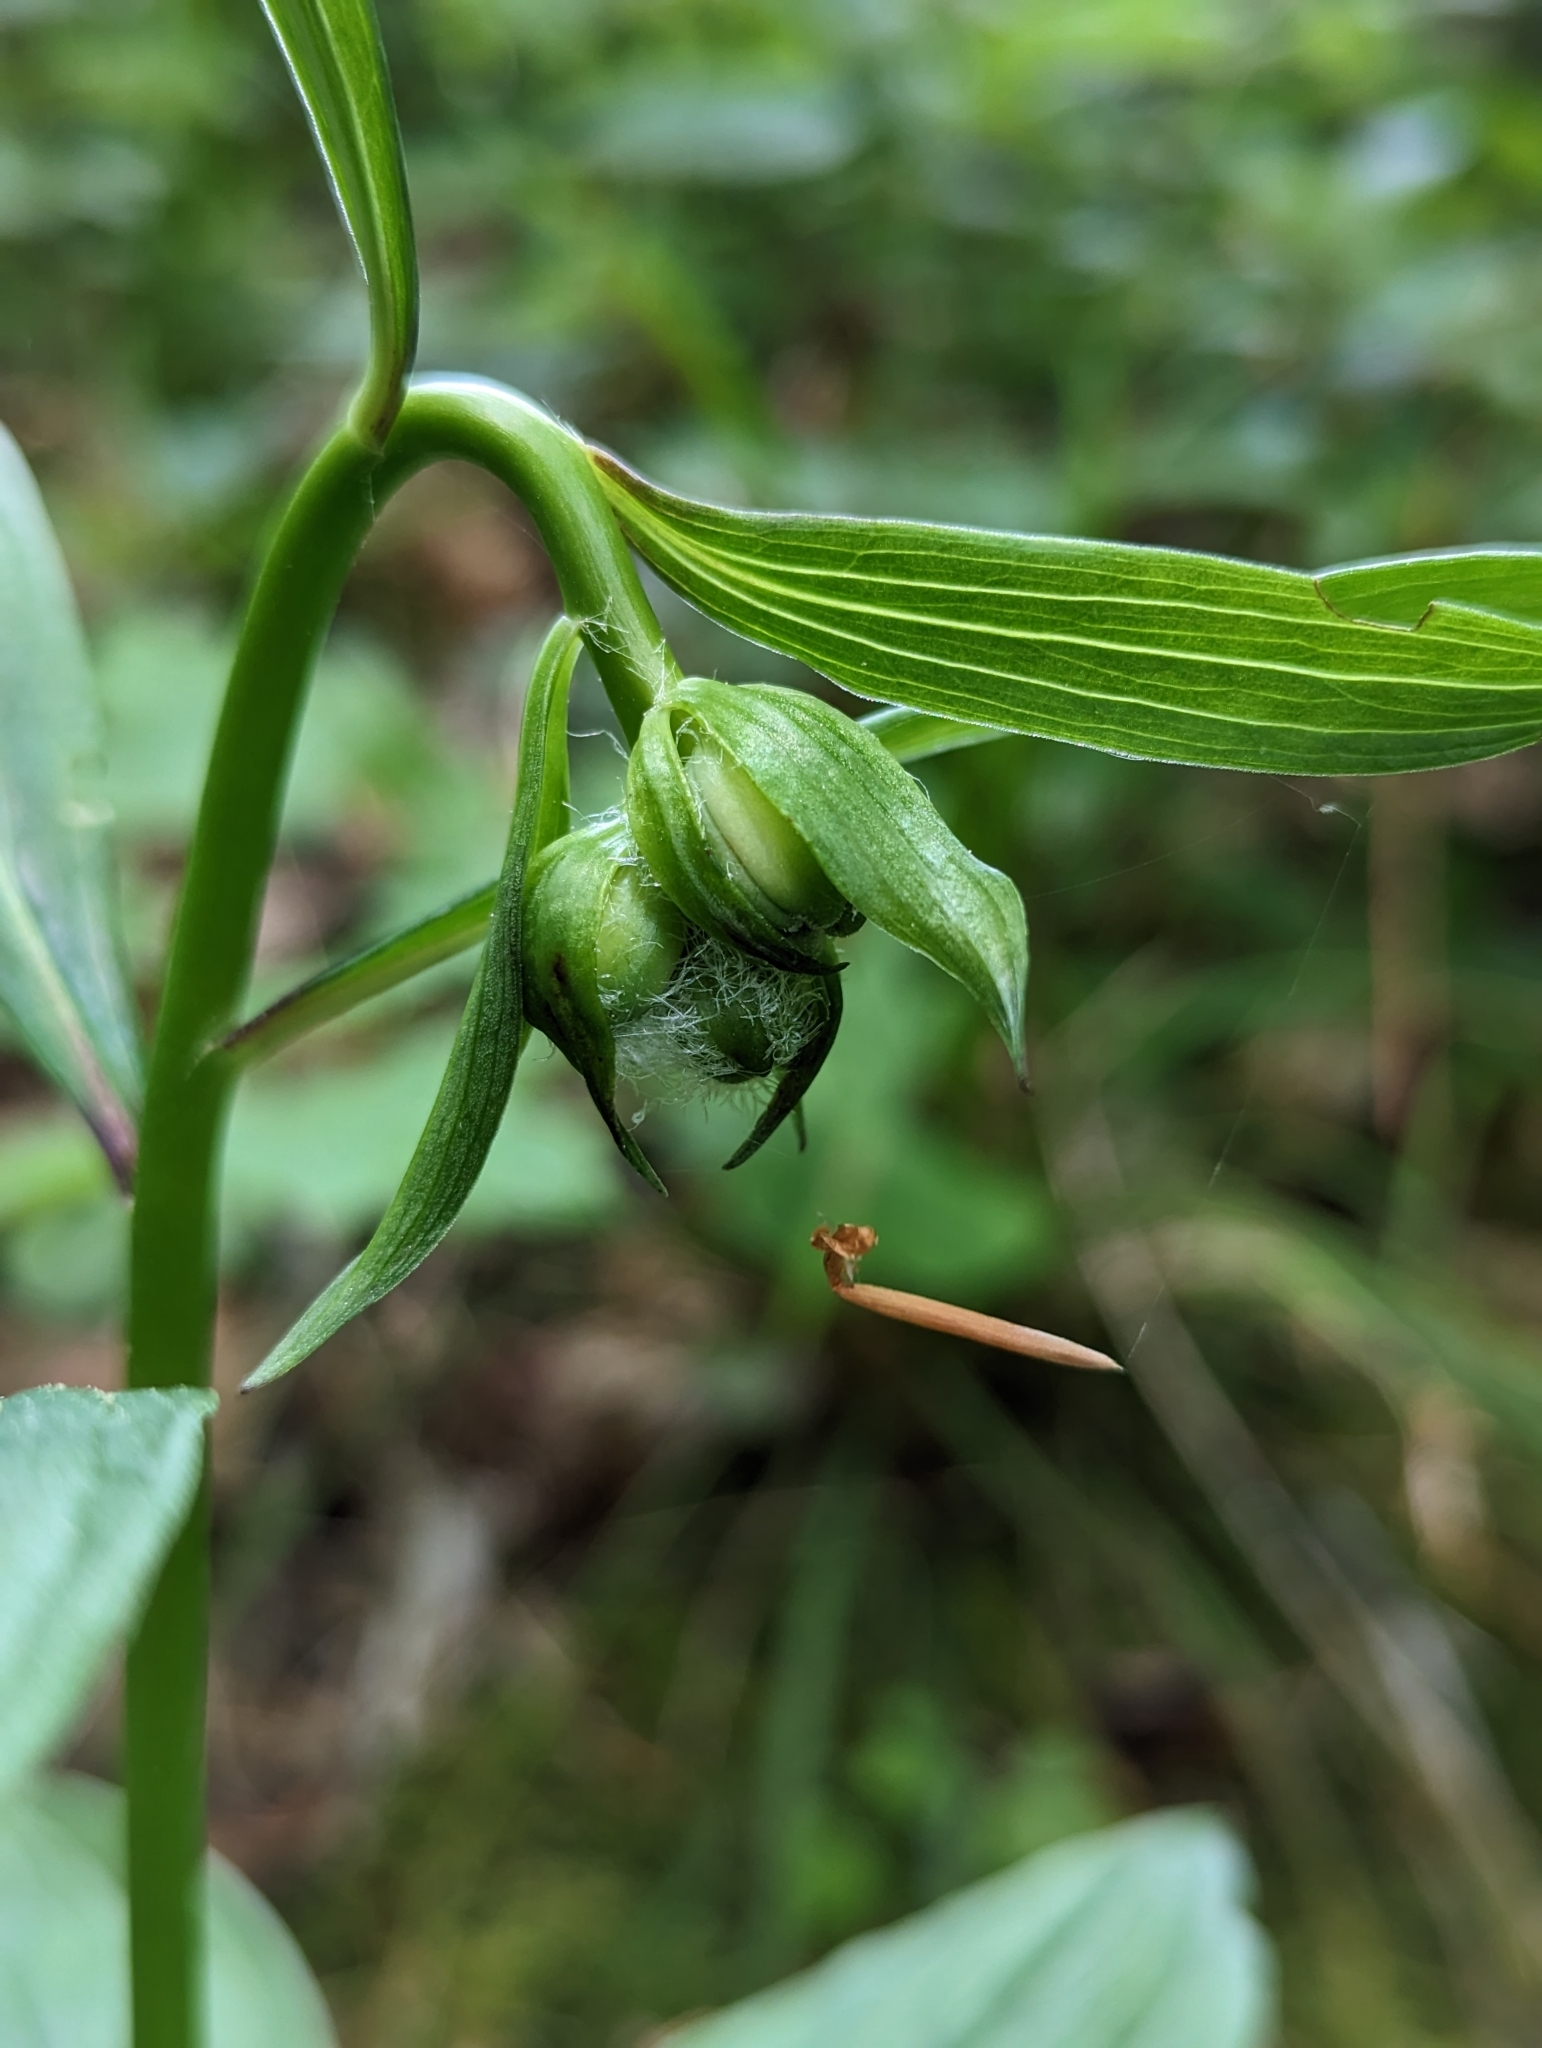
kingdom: Plantae
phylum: Tracheophyta
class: Liliopsida
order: Liliales
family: Liliaceae
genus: Lilium
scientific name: Lilium martagon
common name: Martagon lily
